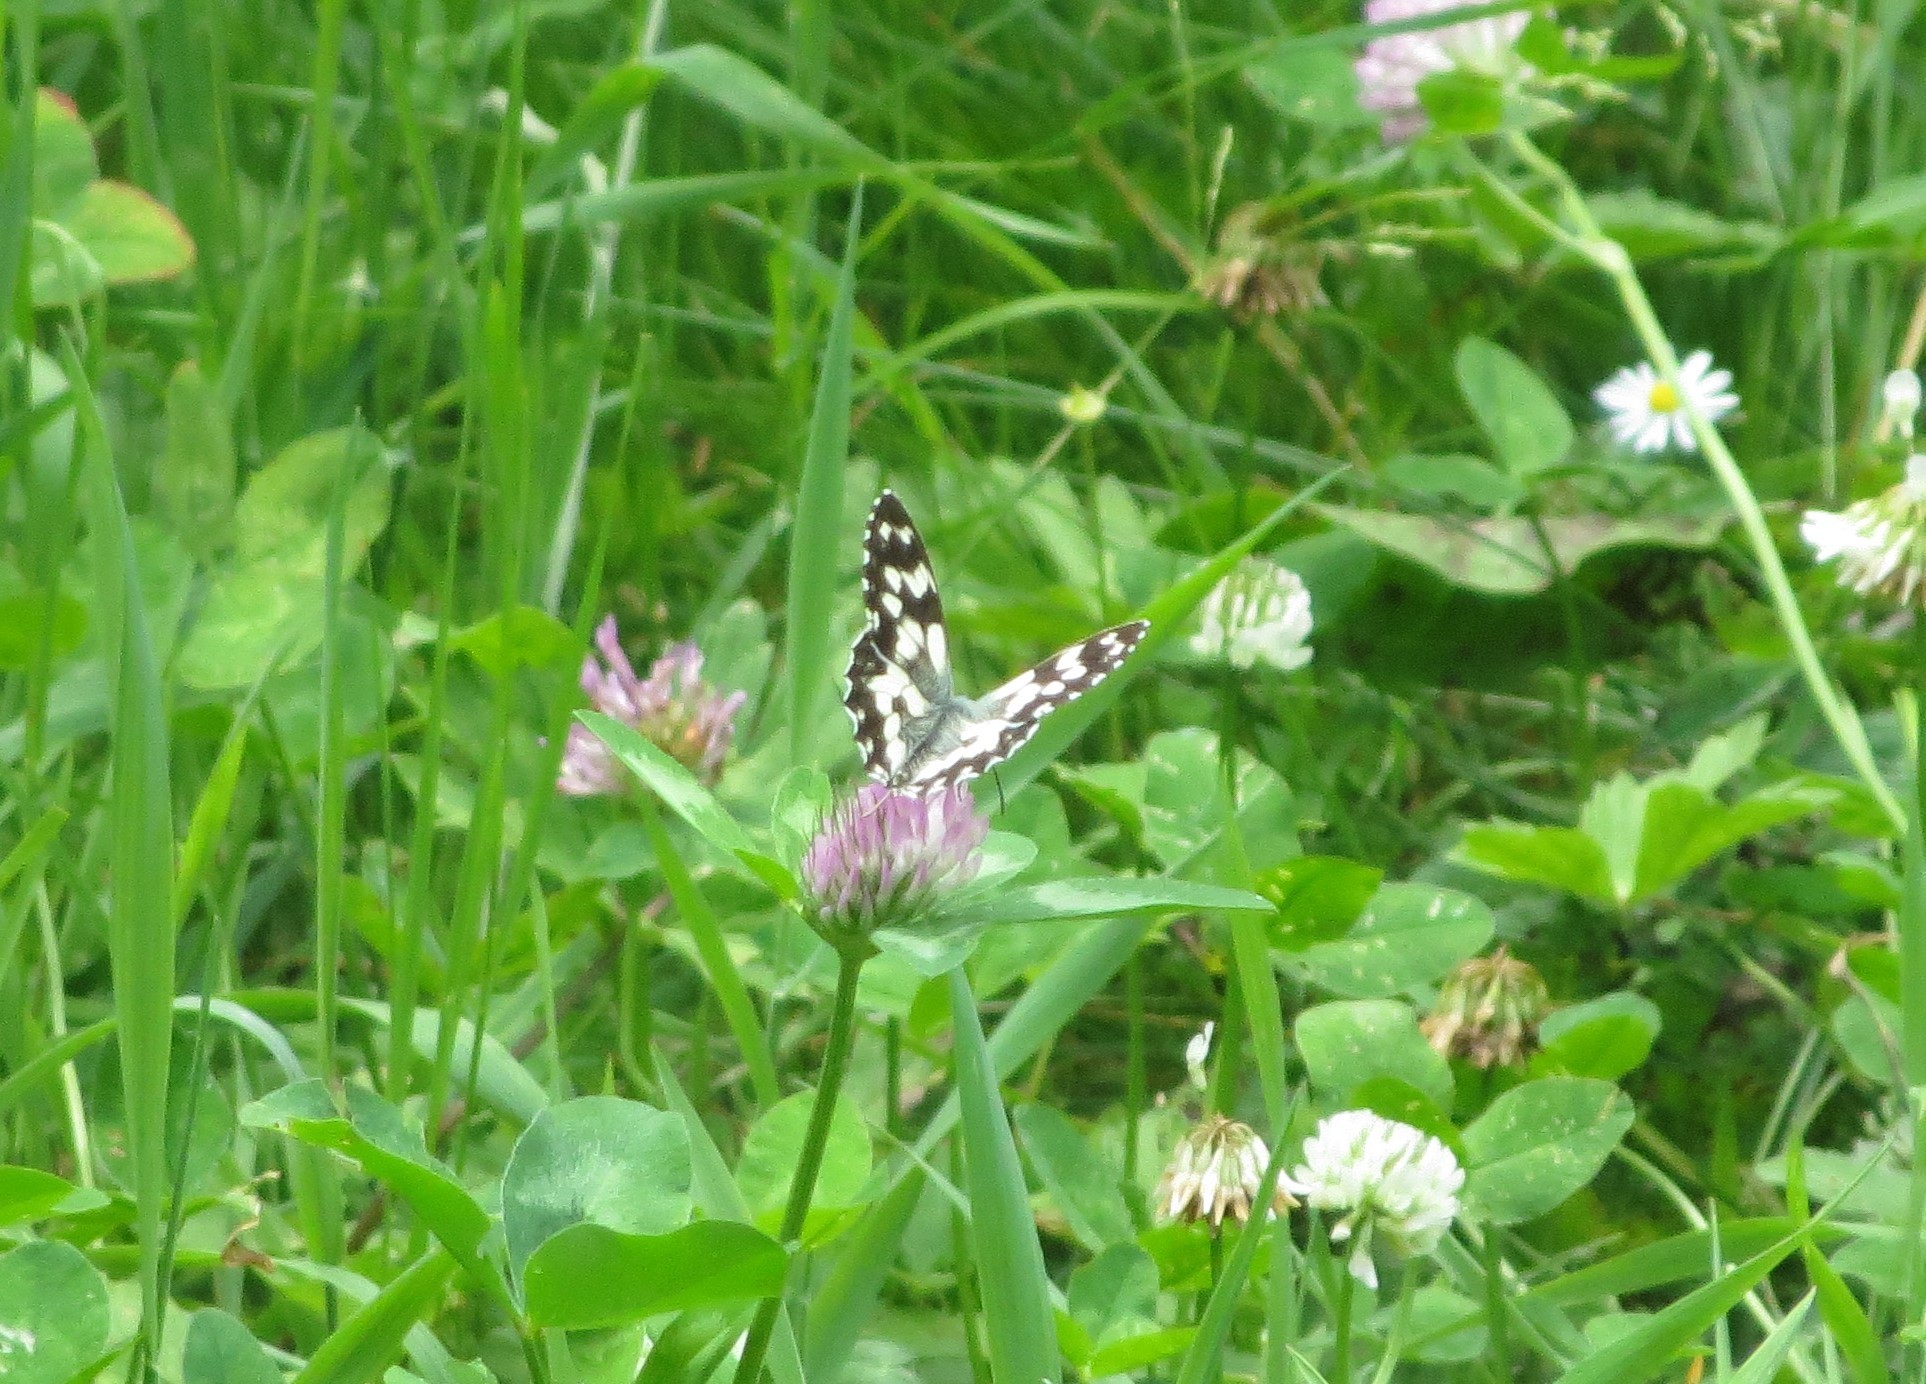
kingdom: Animalia
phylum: Arthropoda
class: Insecta
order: Lepidoptera
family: Nymphalidae
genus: Melanargia
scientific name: Melanargia galathea
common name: Marbled white
